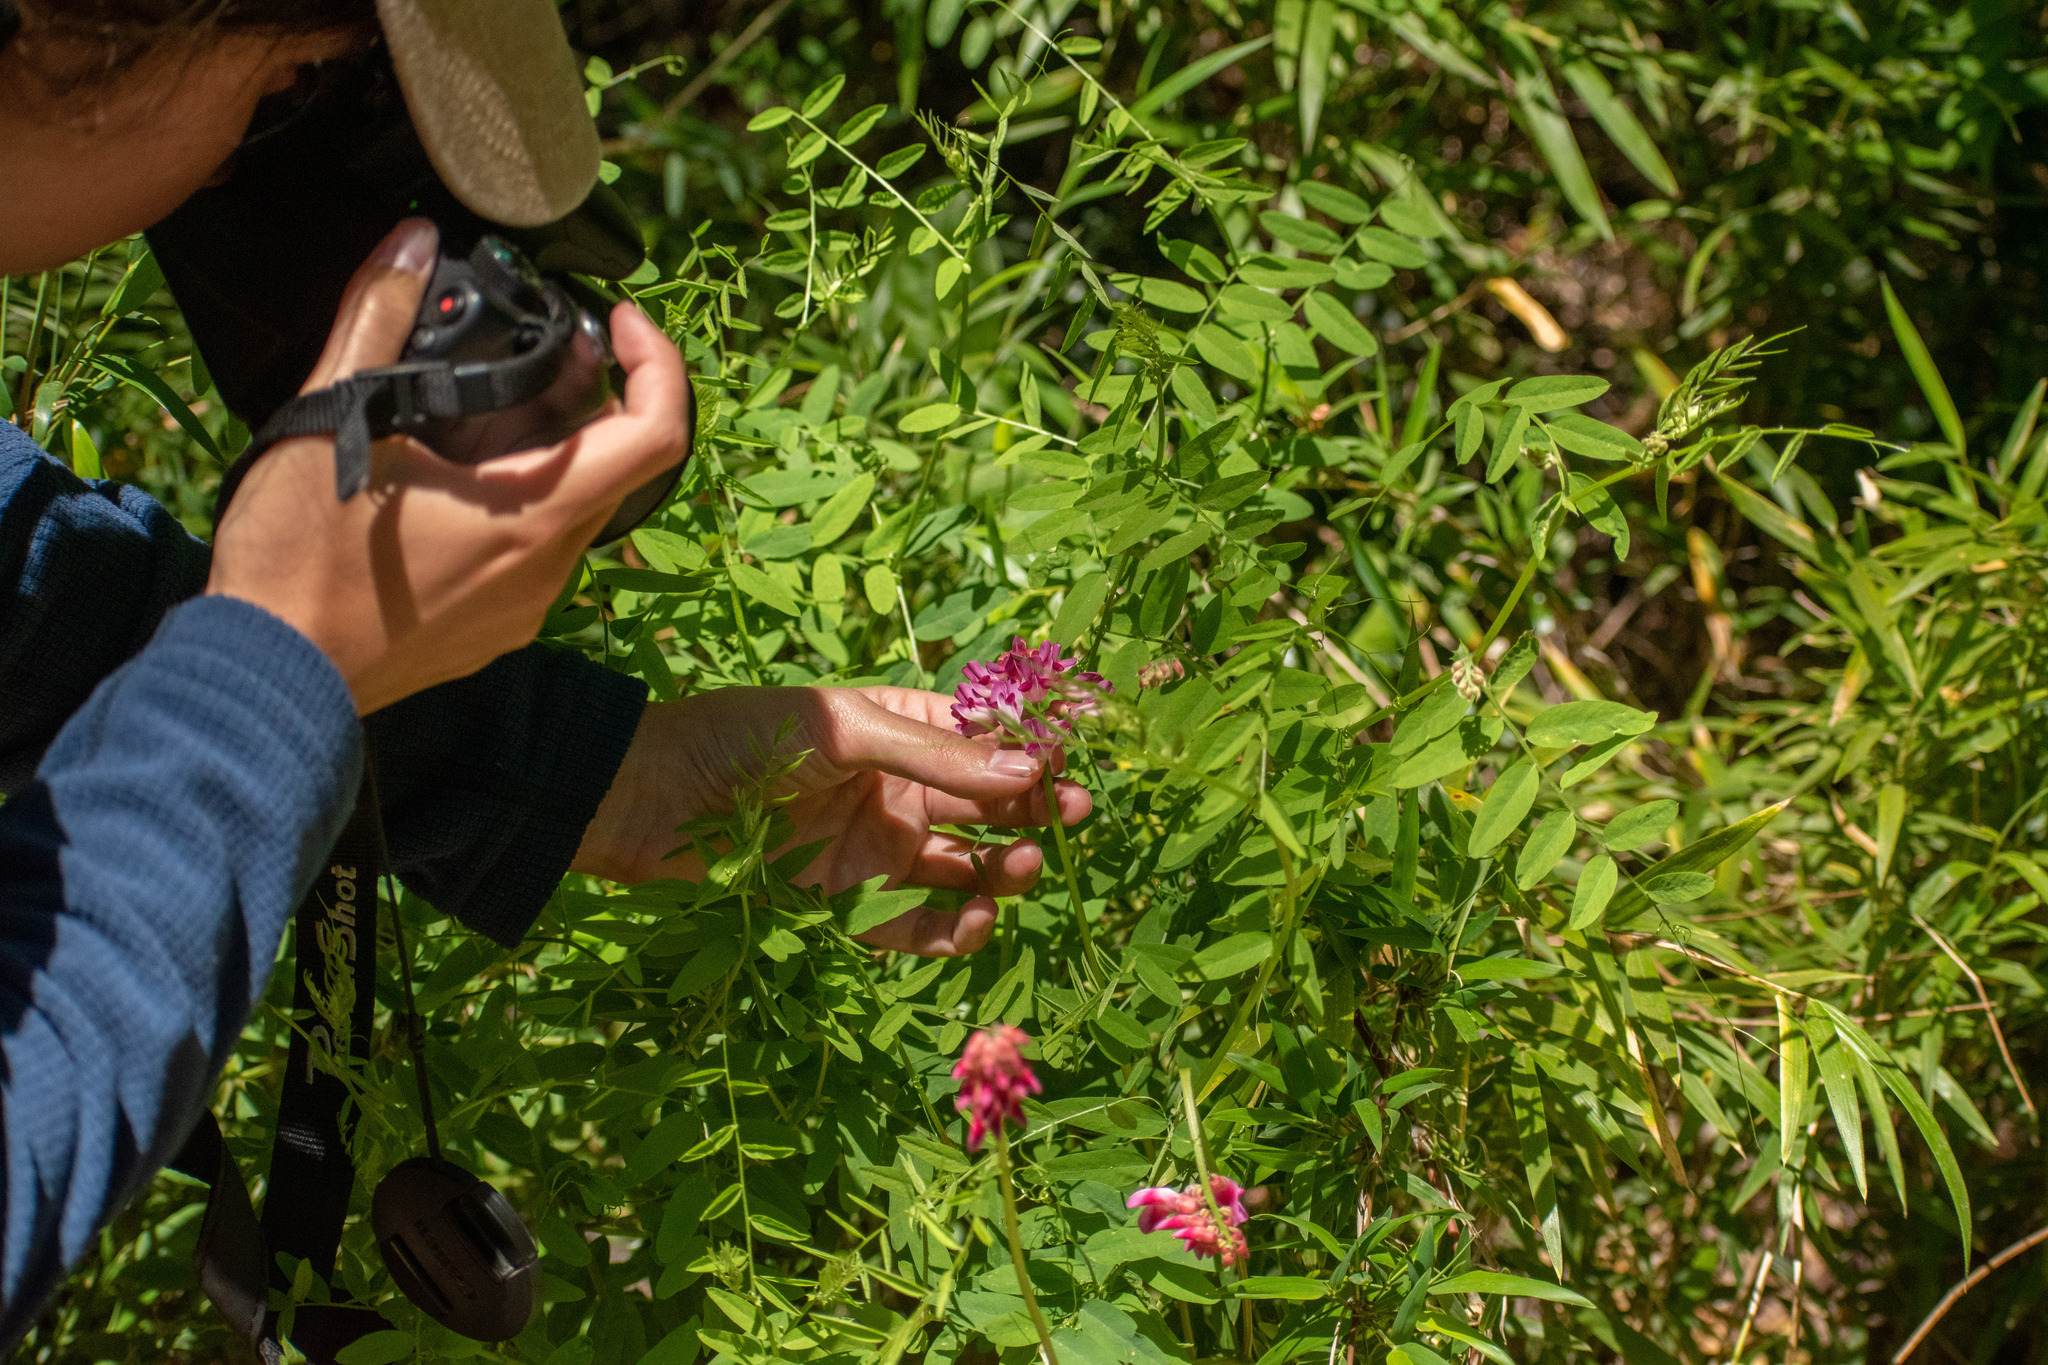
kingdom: Plantae
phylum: Tracheophyta
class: Magnoliopsida
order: Fabales
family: Fabaceae
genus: Vicia
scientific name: Vicia nigricans
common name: Black vetch
